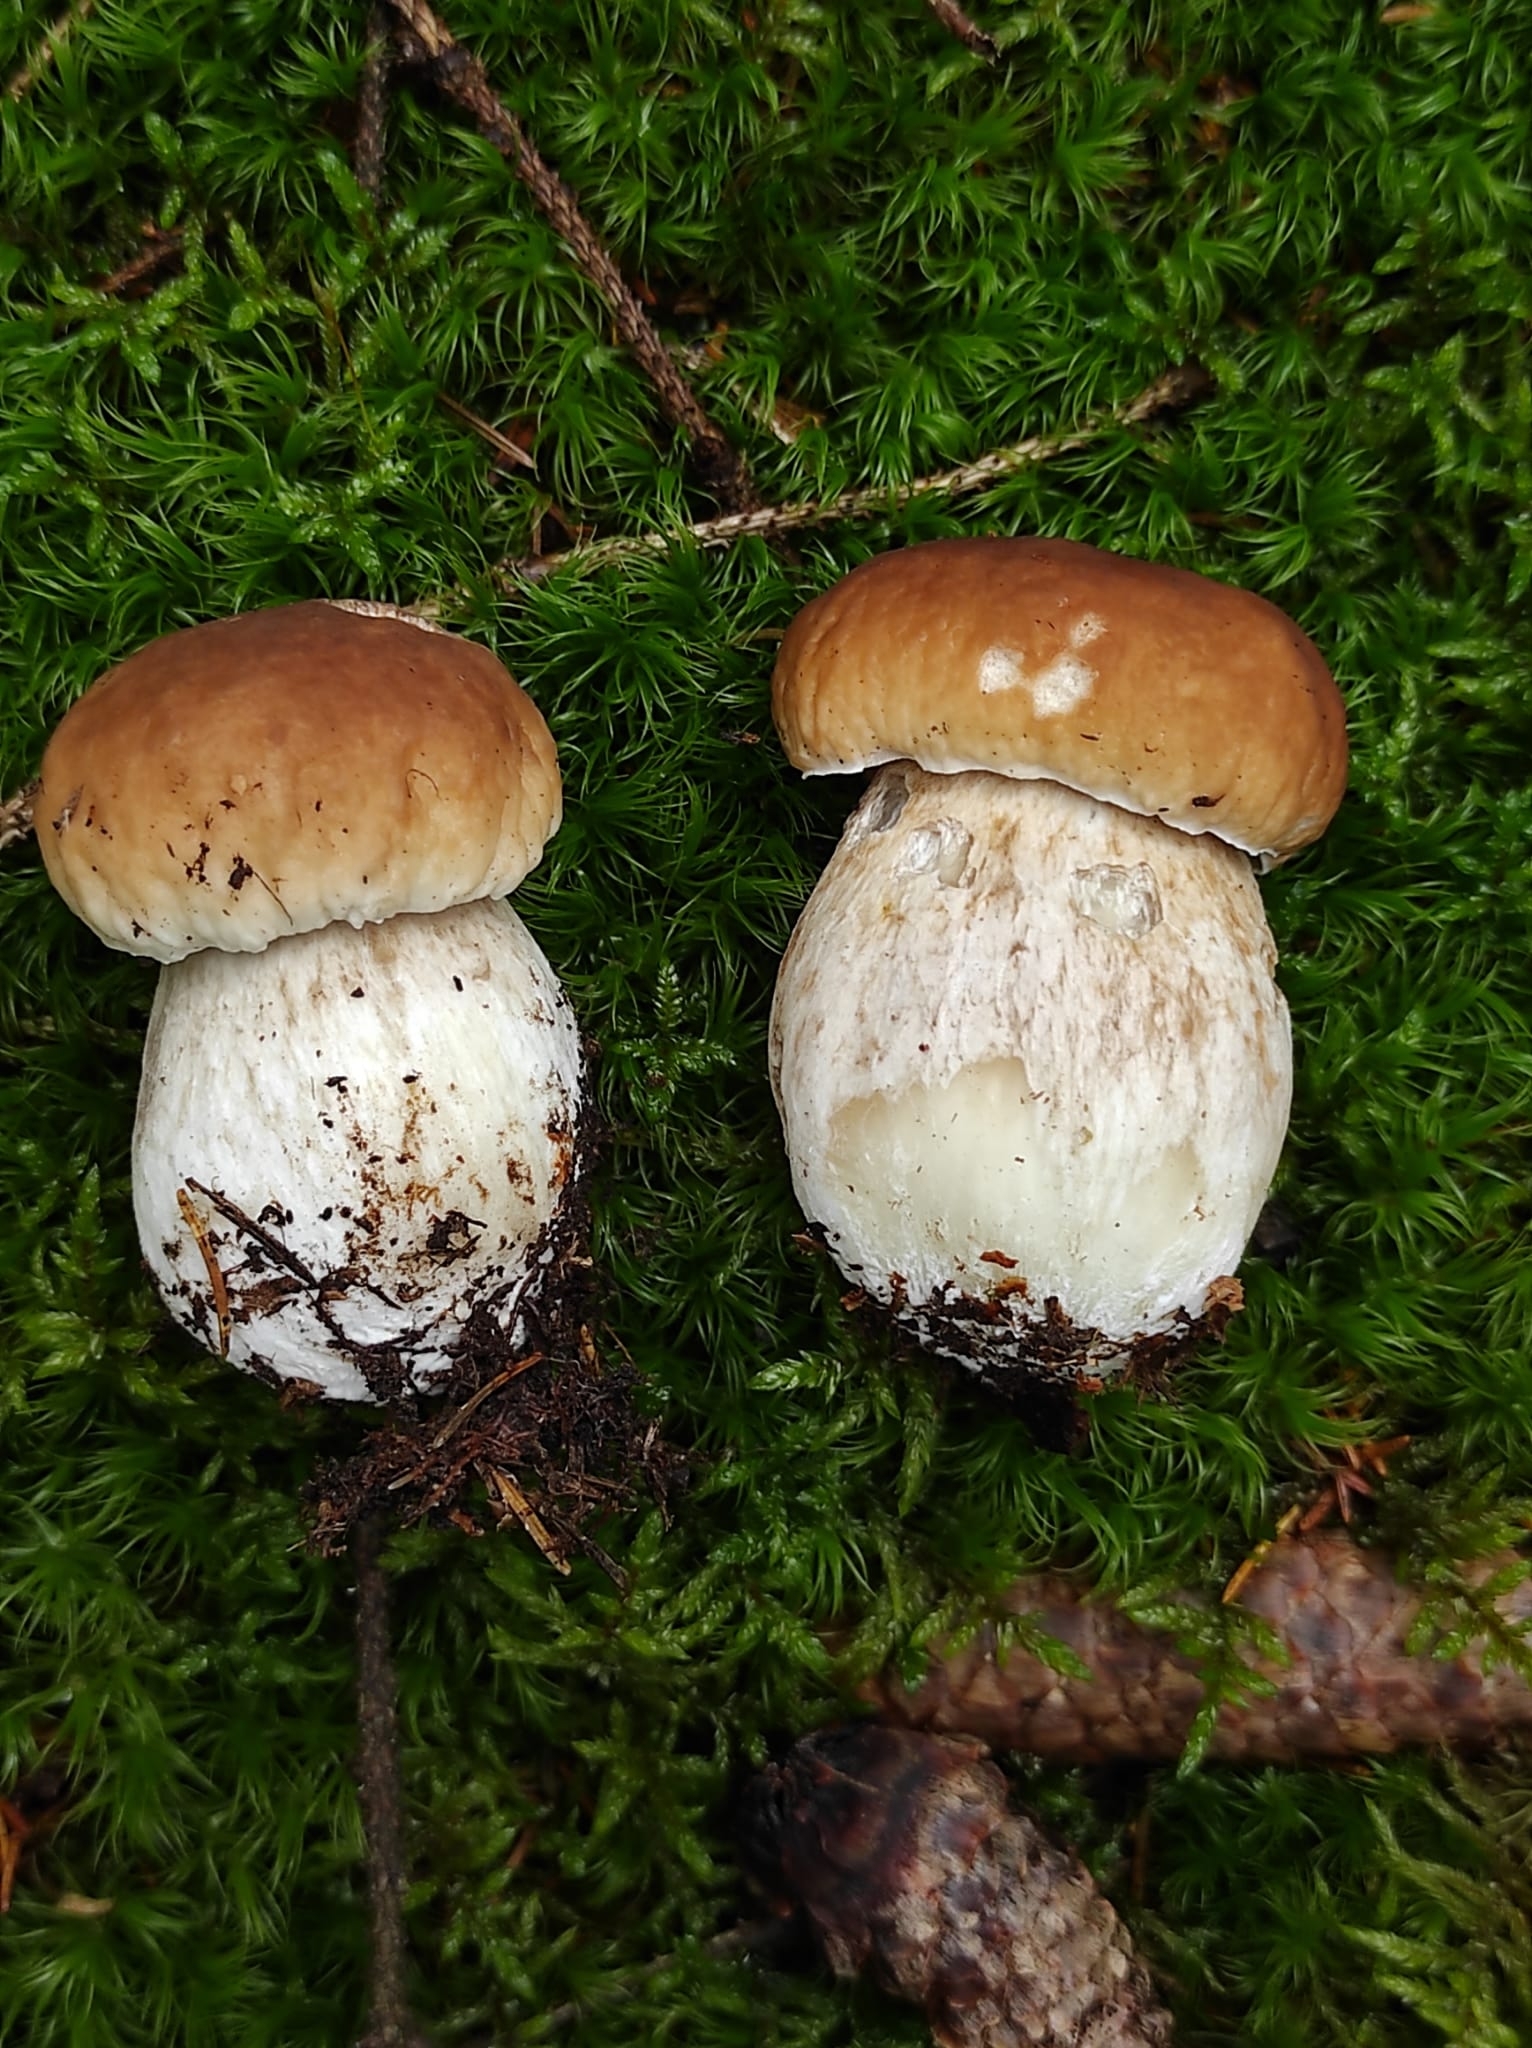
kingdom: Fungi
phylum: Basidiomycota
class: Agaricomycetes
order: Boletales
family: Boletaceae
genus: Boletus
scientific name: Boletus edulis
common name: Cep
